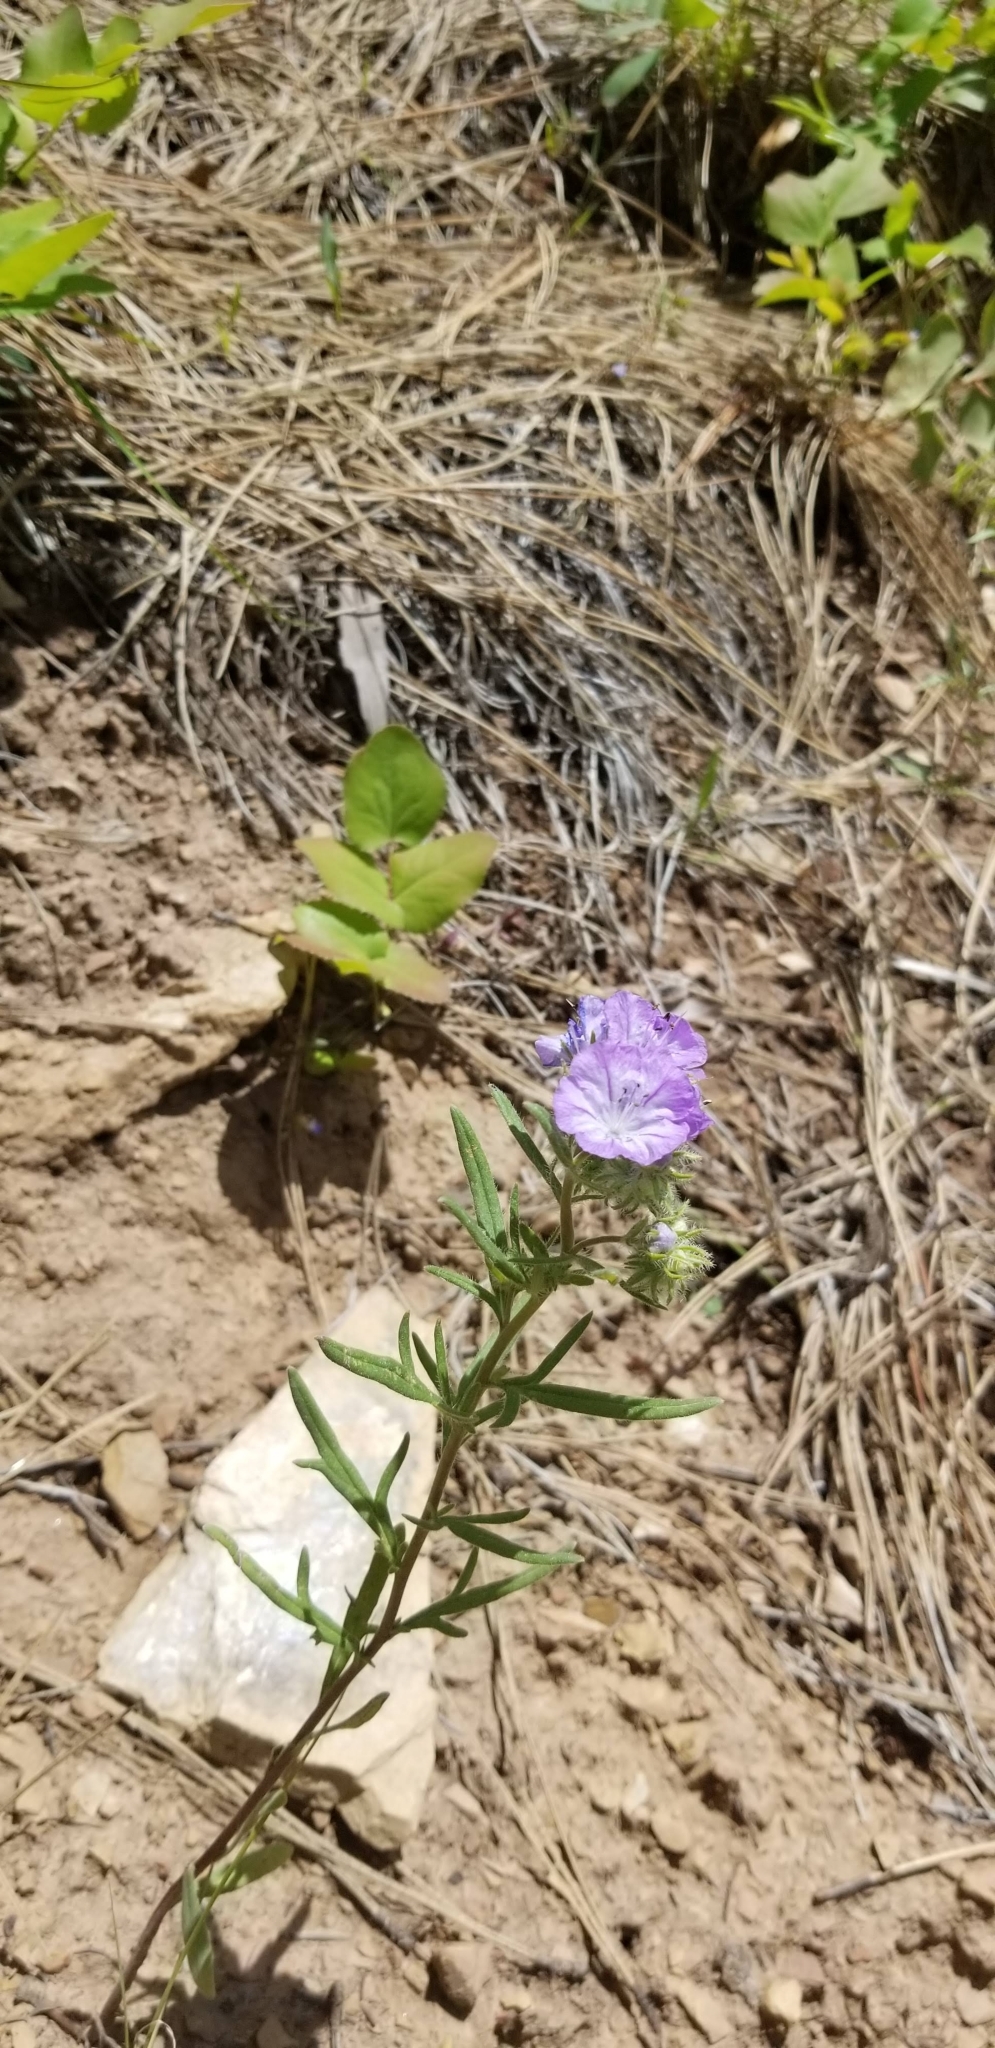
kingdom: Plantae
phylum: Tracheophyta
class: Magnoliopsida
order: Boraginales
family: Hydrophyllaceae
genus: Phacelia
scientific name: Phacelia linearis
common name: Linear-leaved phacelia
